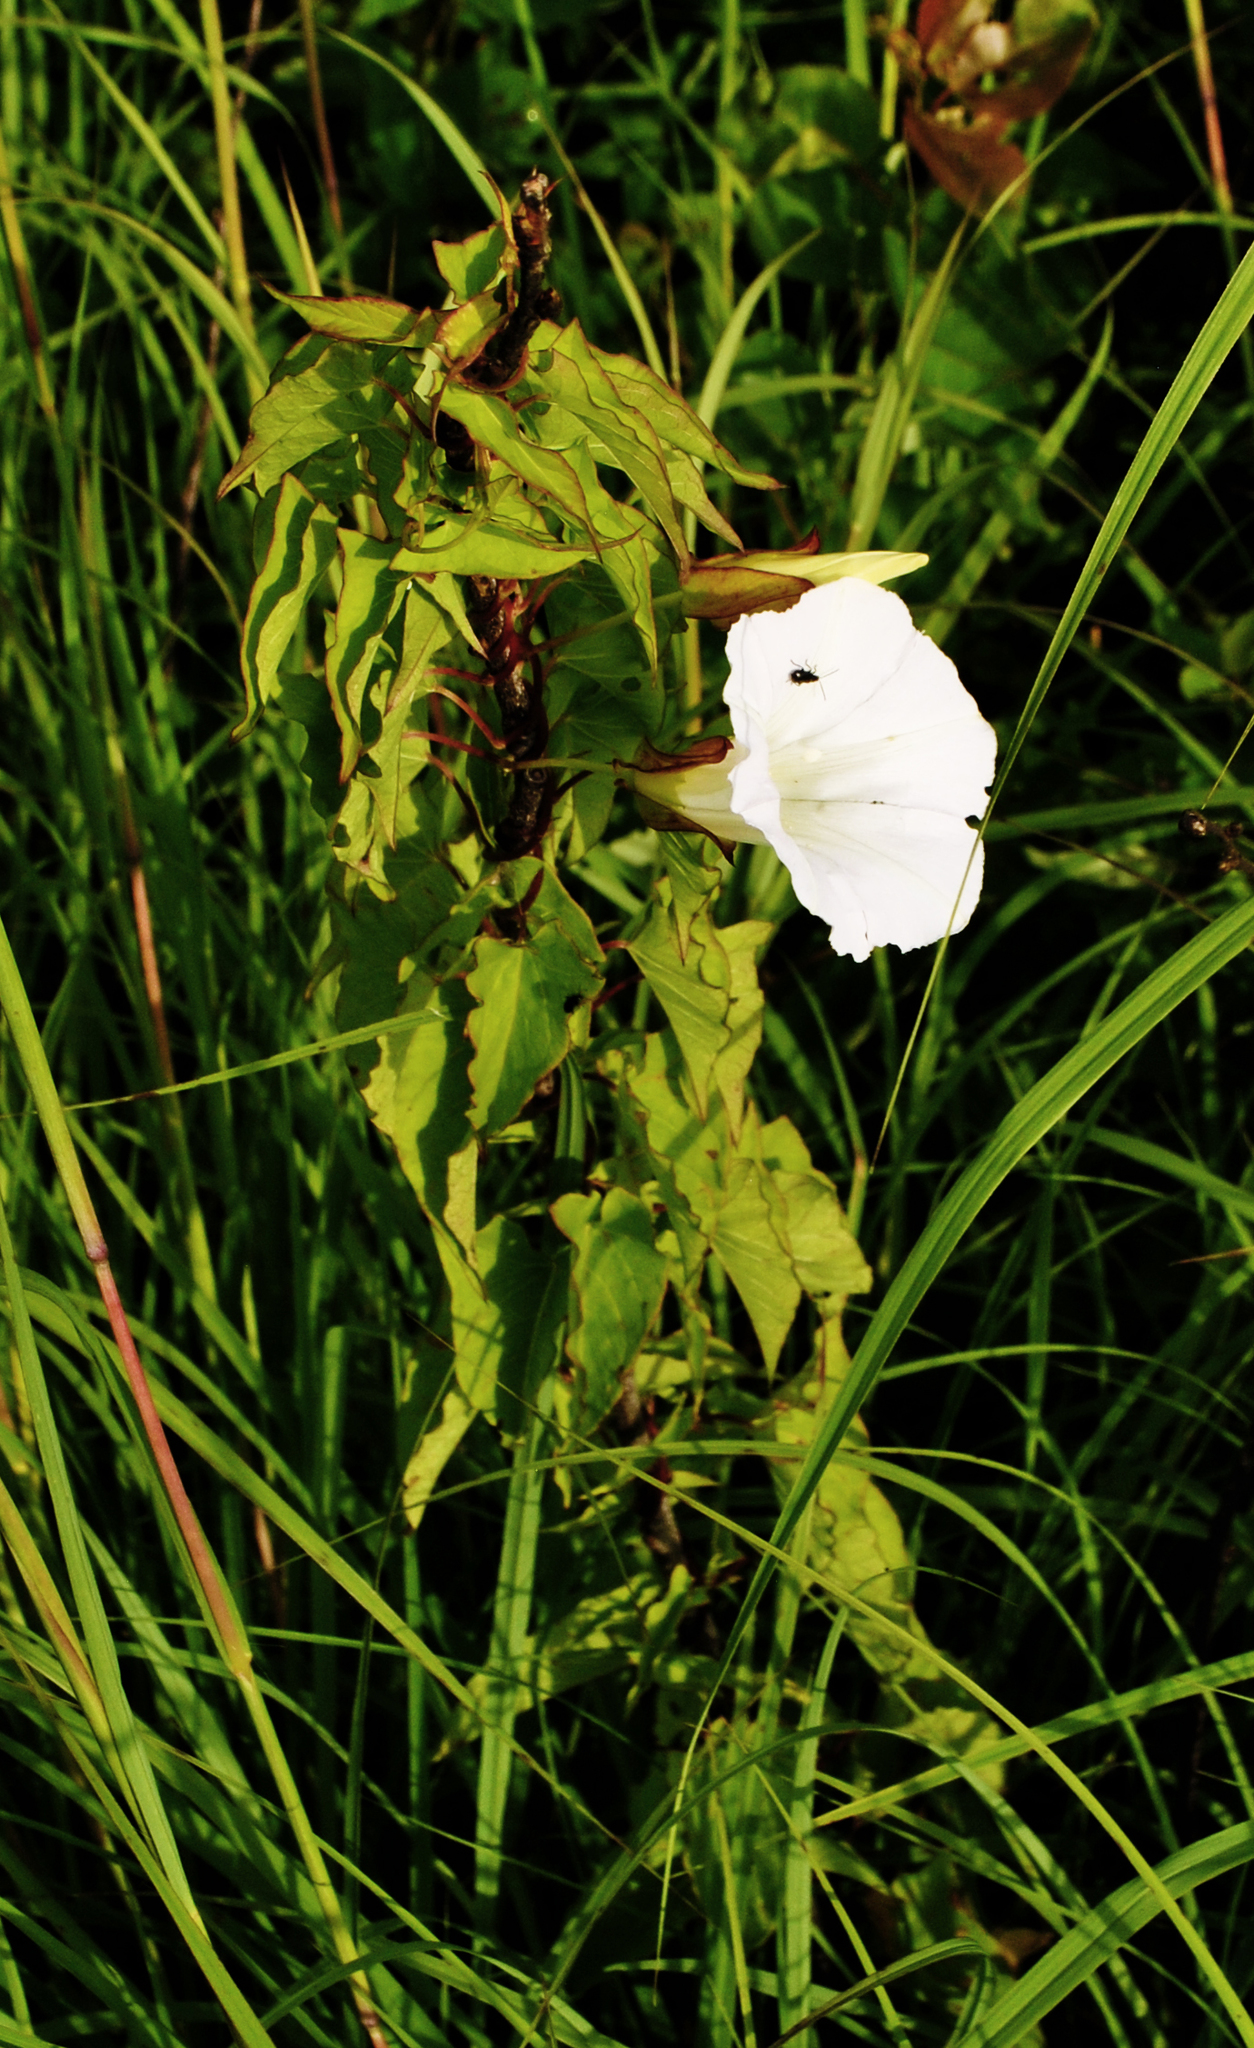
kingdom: Plantae
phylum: Tracheophyta
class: Magnoliopsida
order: Solanales
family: Convolvulaceae
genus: Calystegia
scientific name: Calystegia sepium
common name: Hedge bindweed
